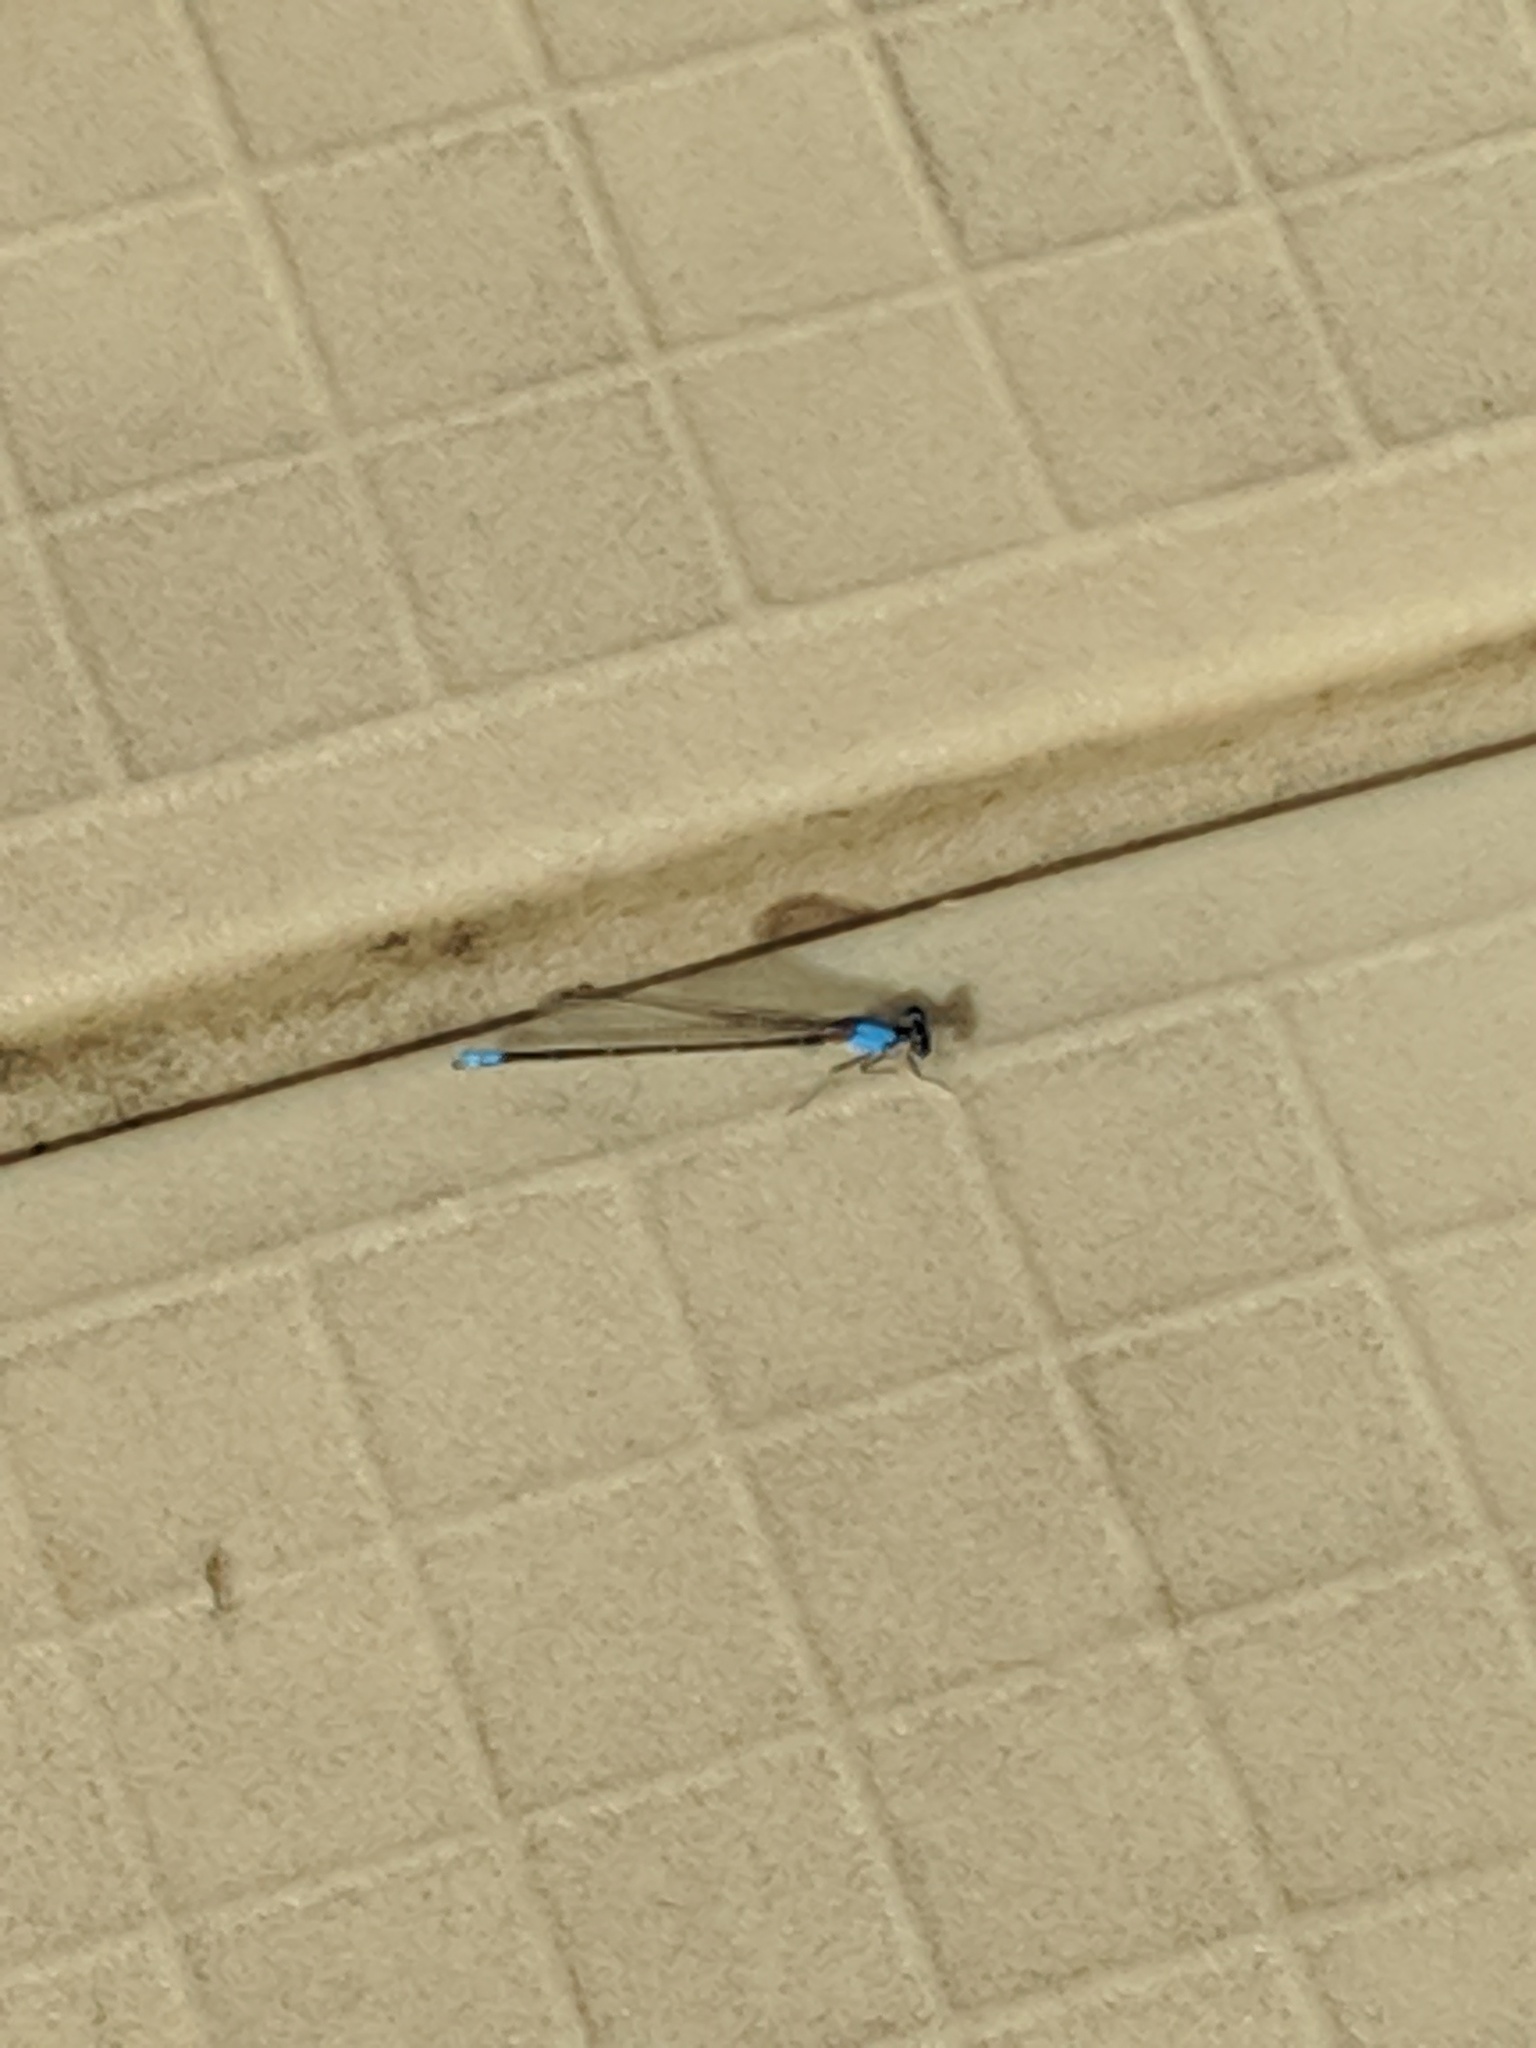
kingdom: Animalia
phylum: Arthropoda
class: Insecta
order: Odonata
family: Coenagrionidae
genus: Argia
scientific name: Argia apicalis
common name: Blue-fronted dancer
